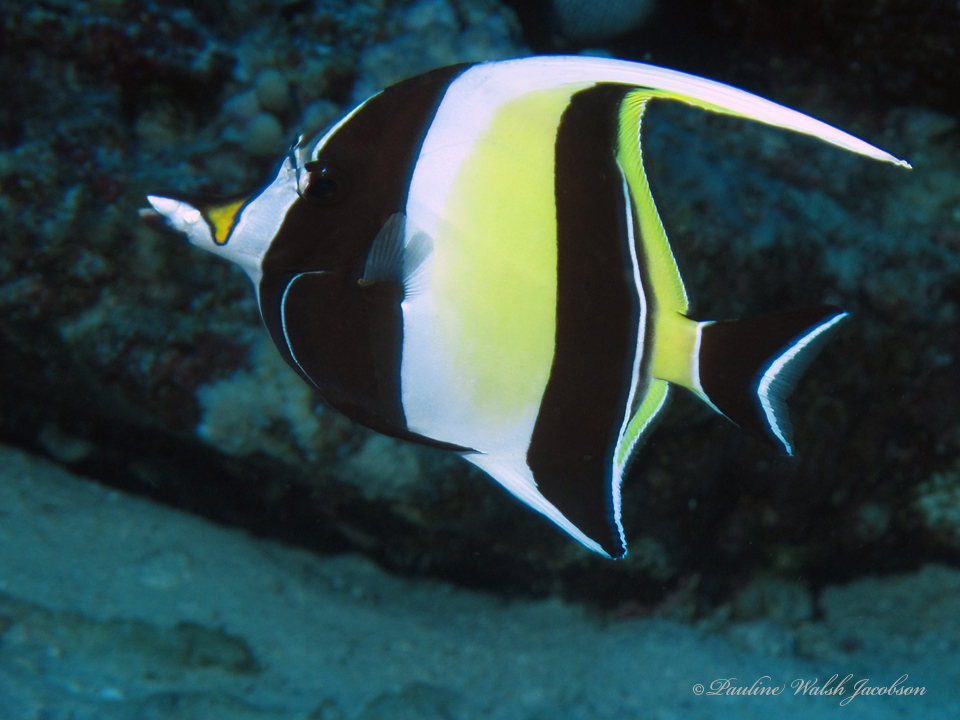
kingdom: Animalia
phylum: Chordata
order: Perciformes
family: Zanclidae
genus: Zanclus
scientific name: Zanclus cornutus
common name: Moorish idol
